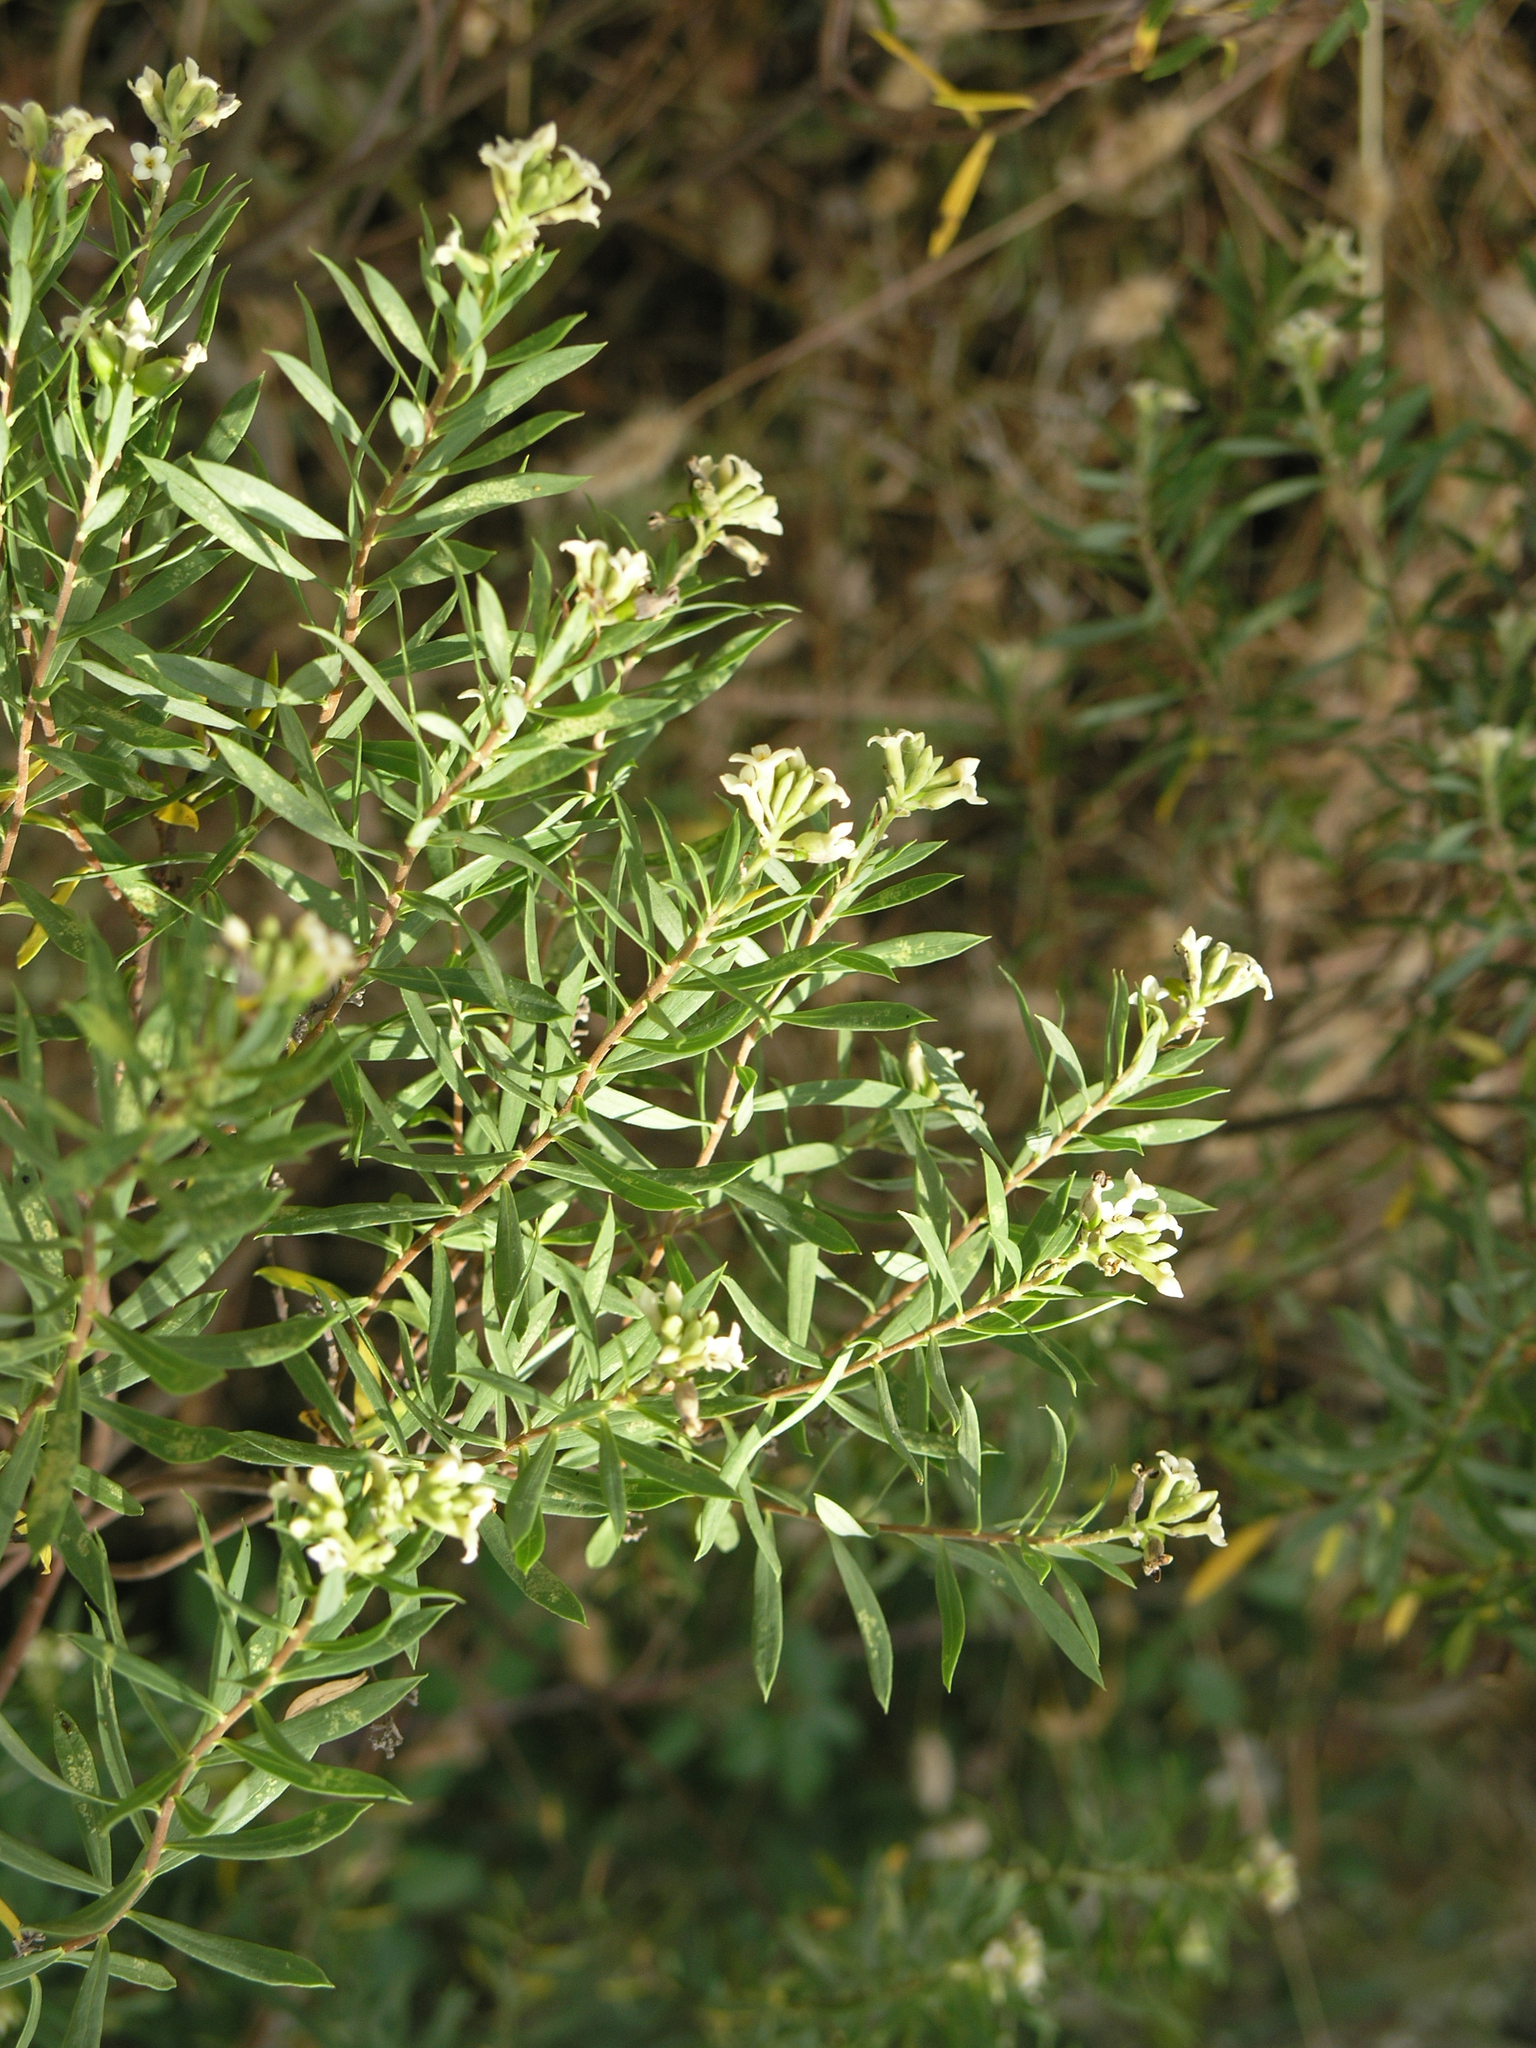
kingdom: Plantae
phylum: Tracheophyta
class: Magnoliopsida
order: Malvales
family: Thymelaeaceae
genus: Daphne
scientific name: Daphne gnidium
